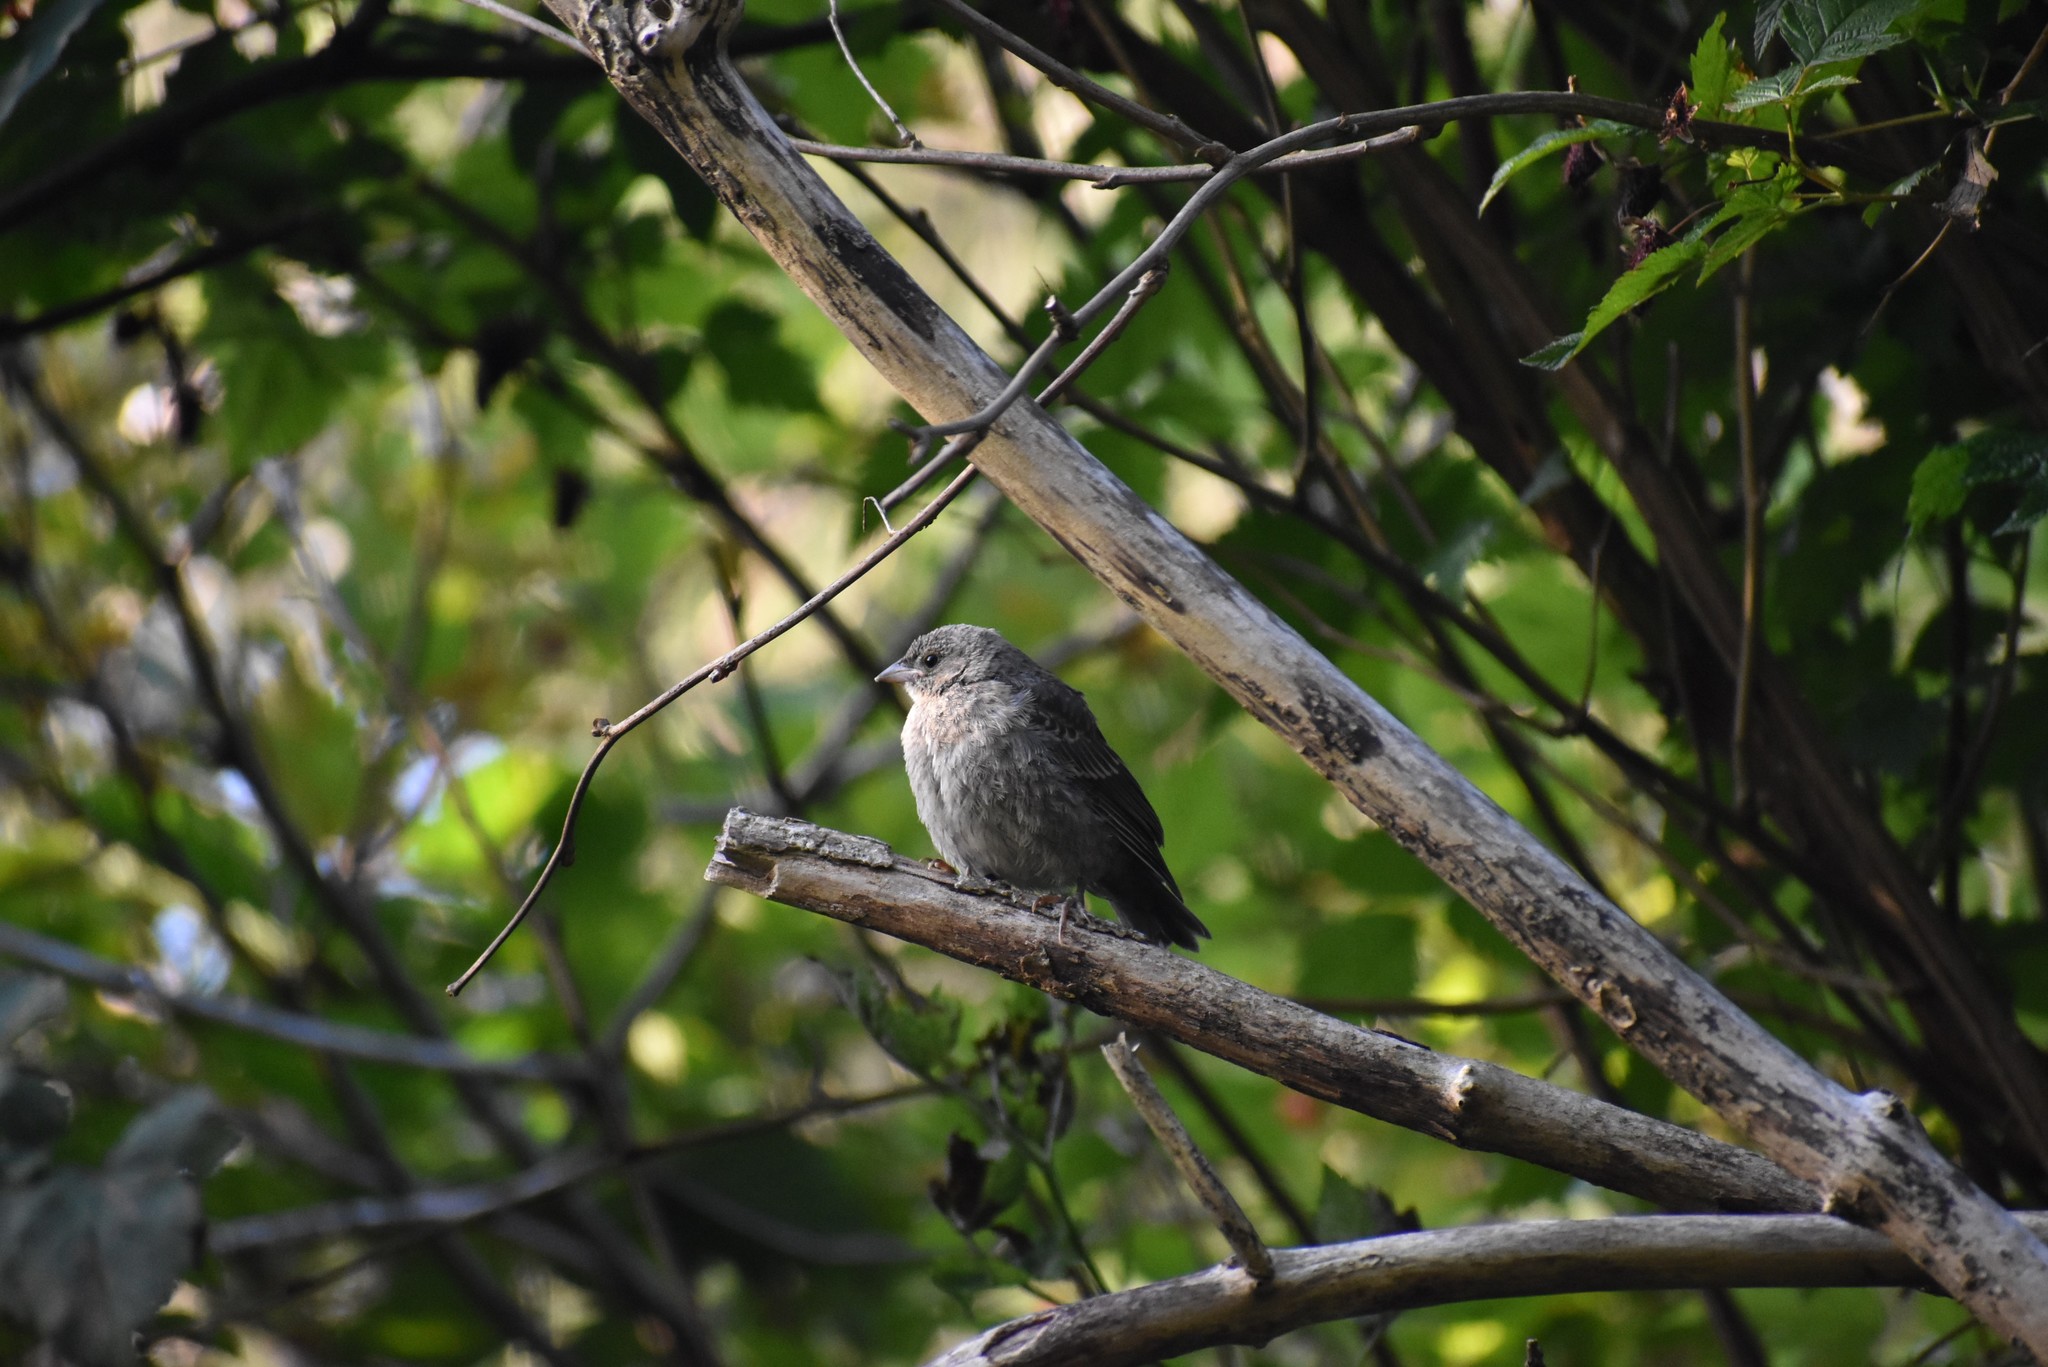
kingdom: Animalia
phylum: Chordata
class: Aves
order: Passeriformes
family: Icteridae
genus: Molothrus
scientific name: Molothrus ater
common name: Brown-headed cowbird
